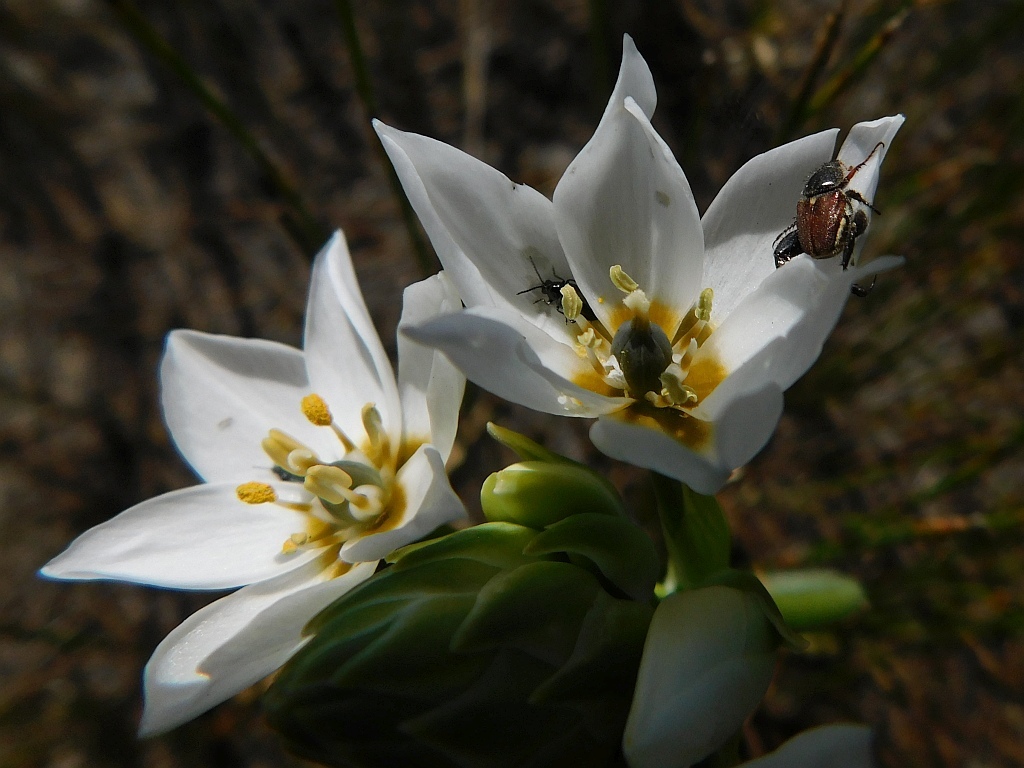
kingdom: Plantae
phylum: Tracheophyta
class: Liliopsida
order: Asparagales
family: Asparagaceae
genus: Ornithogalum
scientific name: Ornithogalum thyrsoides
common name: Chincherinchee
